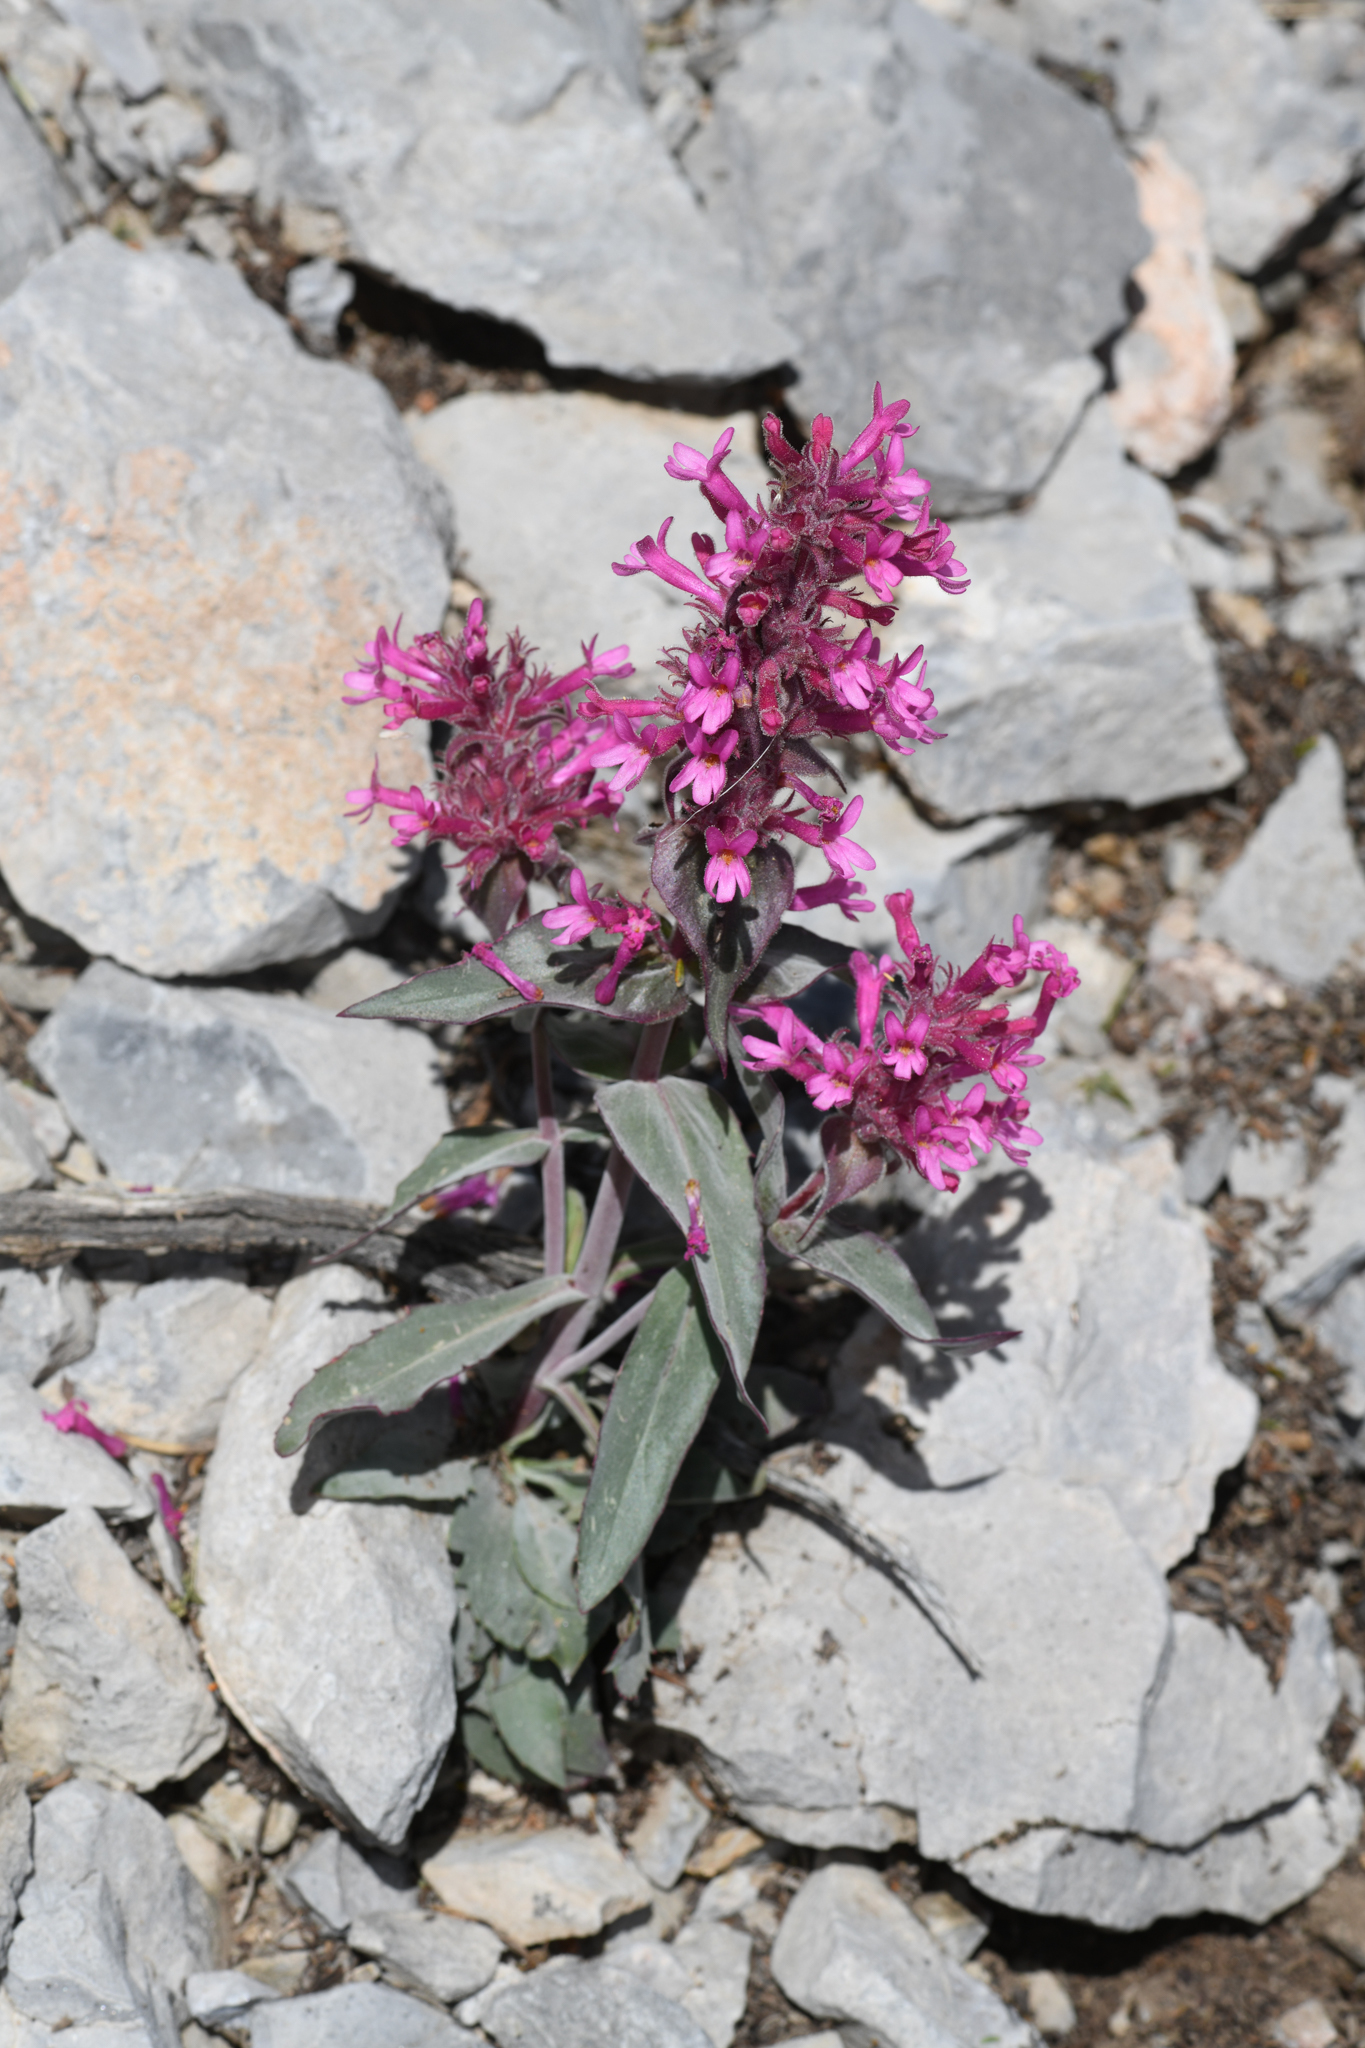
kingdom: Plantae
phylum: Tracheophyta
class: Magnoliopsida
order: Lamiales
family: Plantaginaceae
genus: Penstemon
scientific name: Penstemon calcareus
